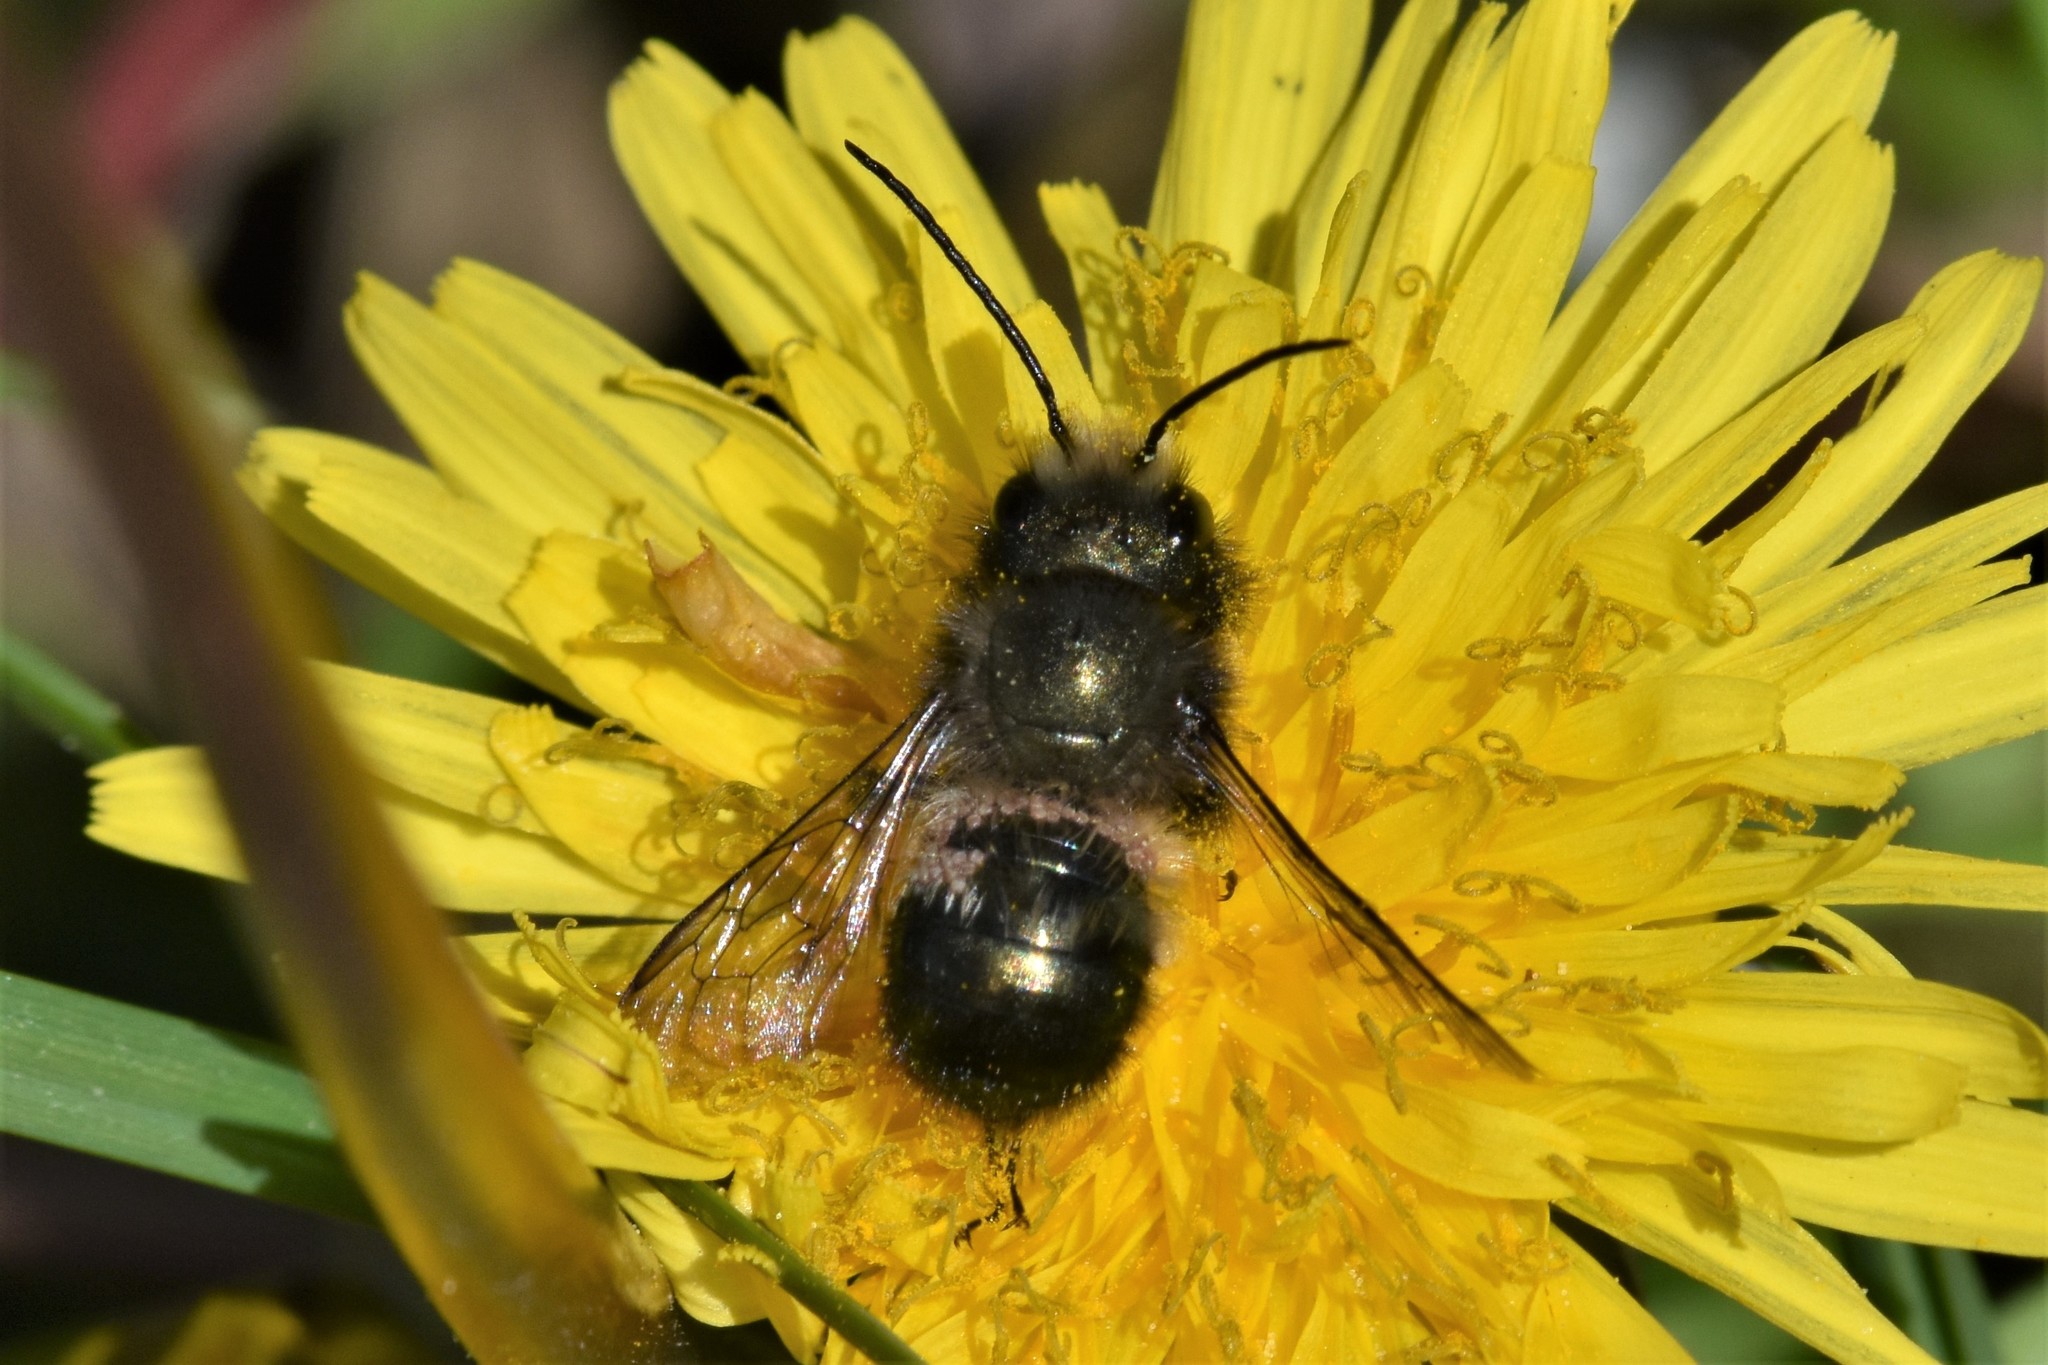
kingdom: Animalia
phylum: Arthropoda
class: Insecta
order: Hymenoptera
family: Megachilidae
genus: Osmia
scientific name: Osmia lignaria
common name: Blue orchard bee
